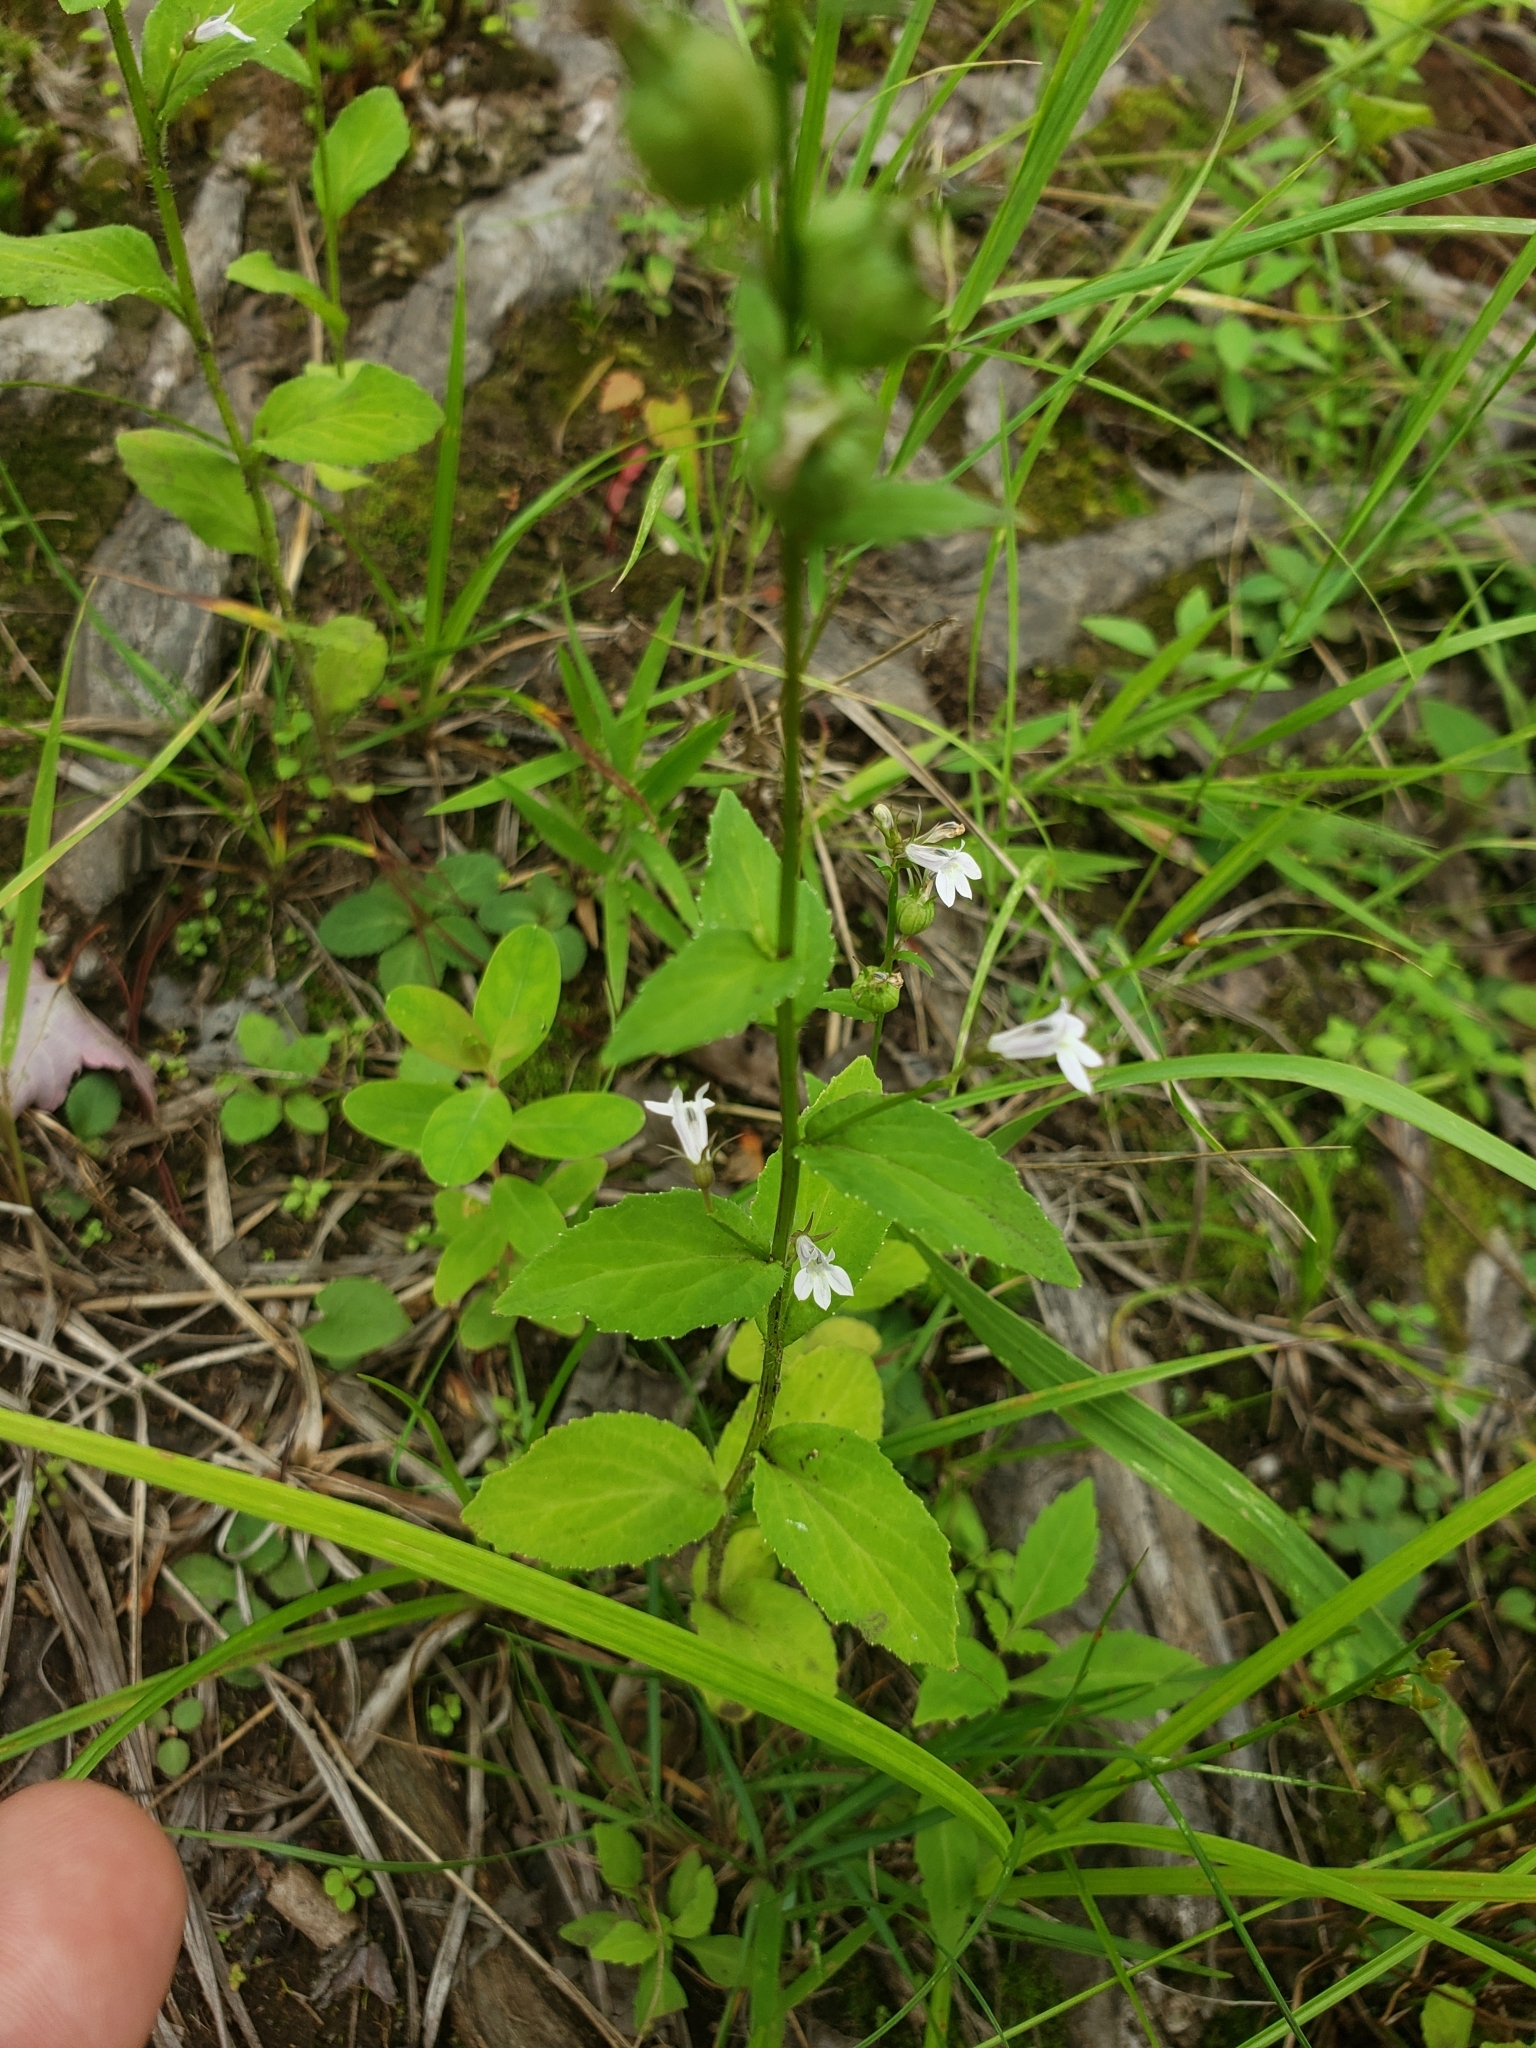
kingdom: Plantae
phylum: Tracheophyta
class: Magnoliopsida
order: Asterales
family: Campanulaceae
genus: Lobelia
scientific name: Lobelia inflata
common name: Indian tobacco
